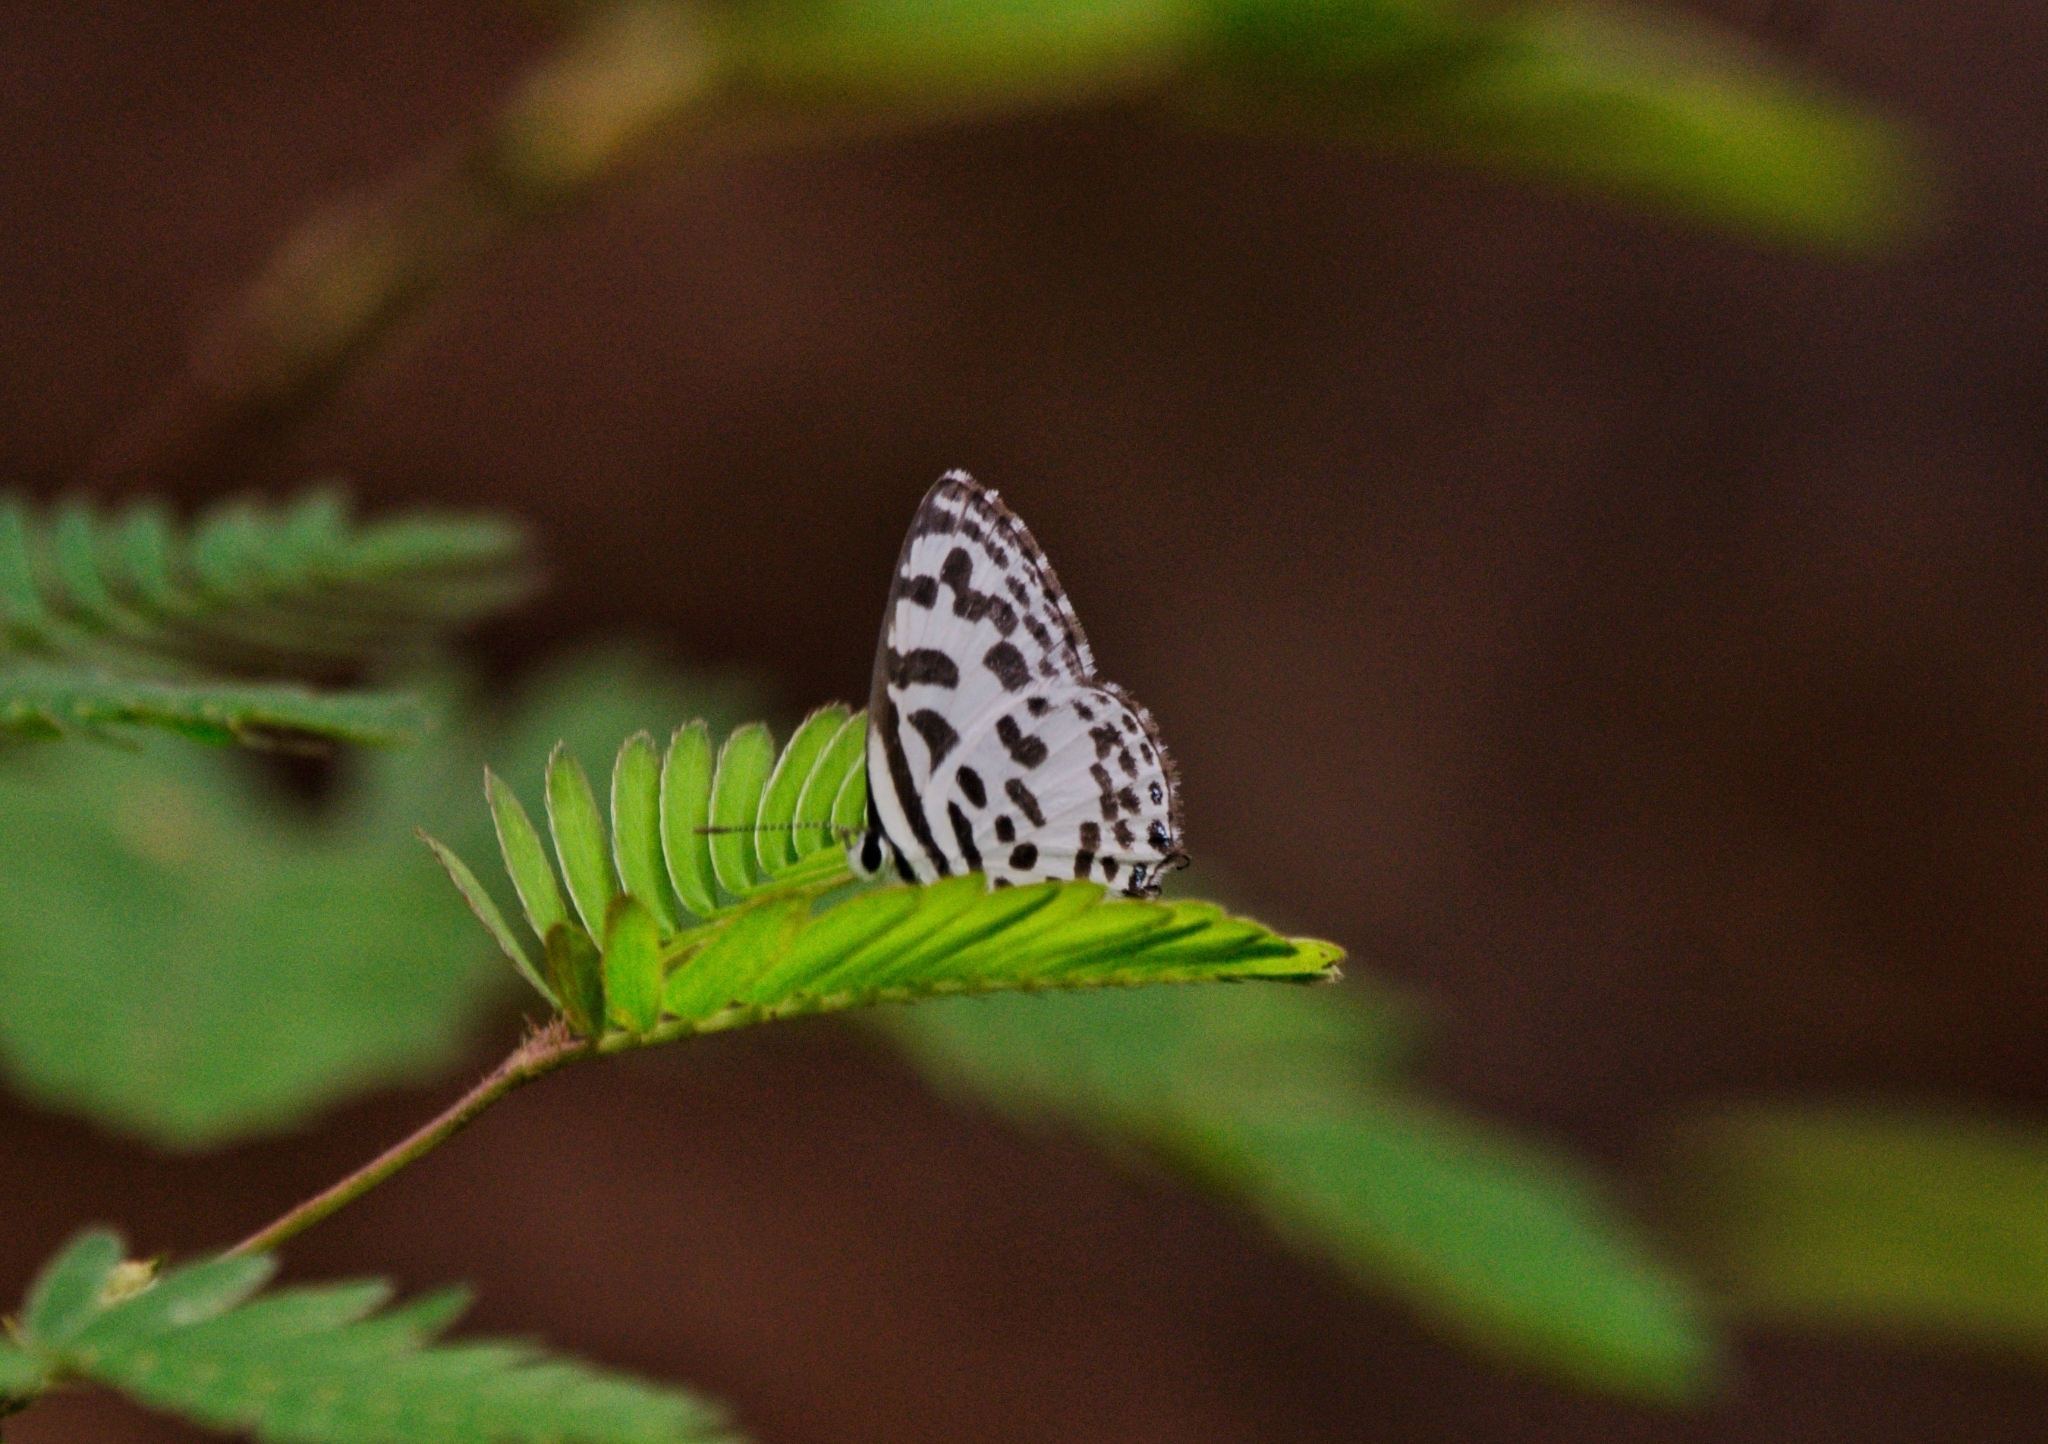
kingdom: Animalia
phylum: Arthropoda
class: Insecta
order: Lepidoptera
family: Lycaenidae
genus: Castalius
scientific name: Castalius rosimon
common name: Common pierrot
